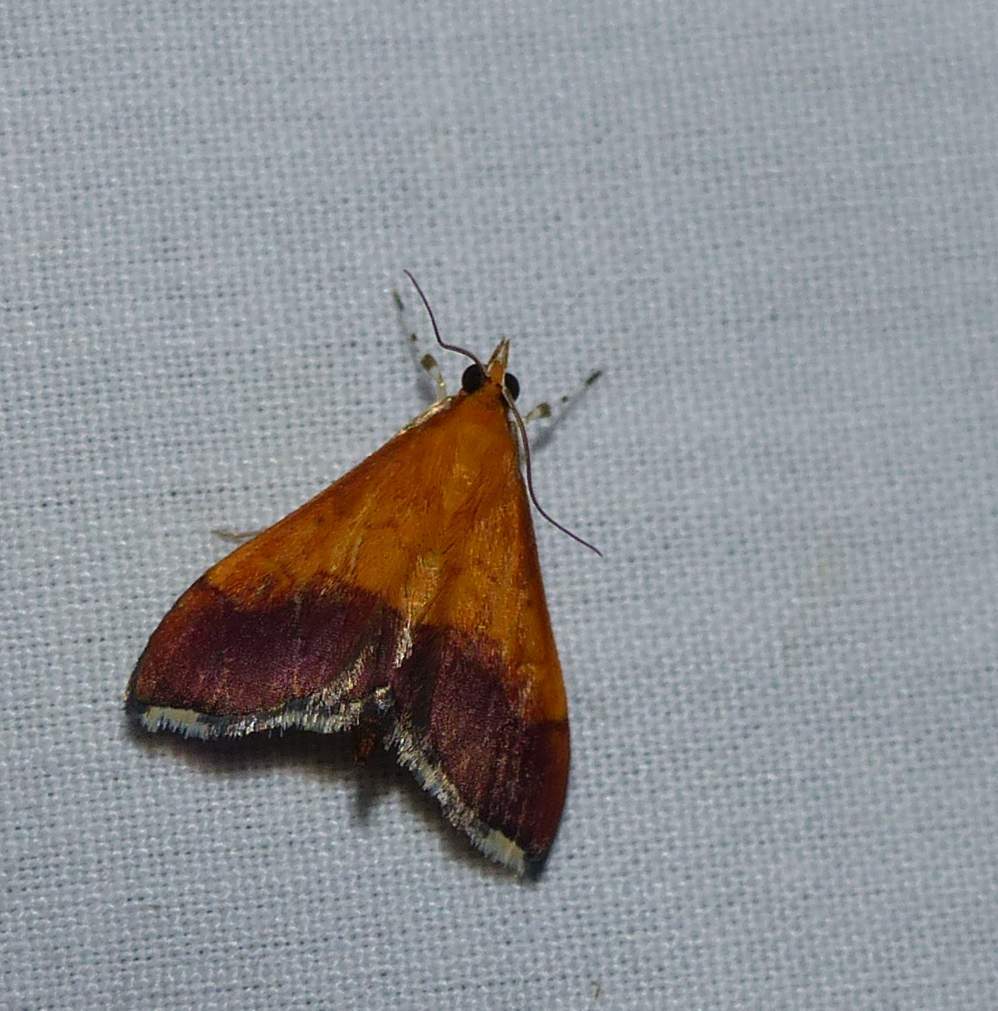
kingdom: Animalia
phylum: Arthropoda
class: Insecta
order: Lepidoptera
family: Crambidae
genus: Pyrausta
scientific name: Pyrausta bicoloralis
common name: Bicolored pyrausta moth
